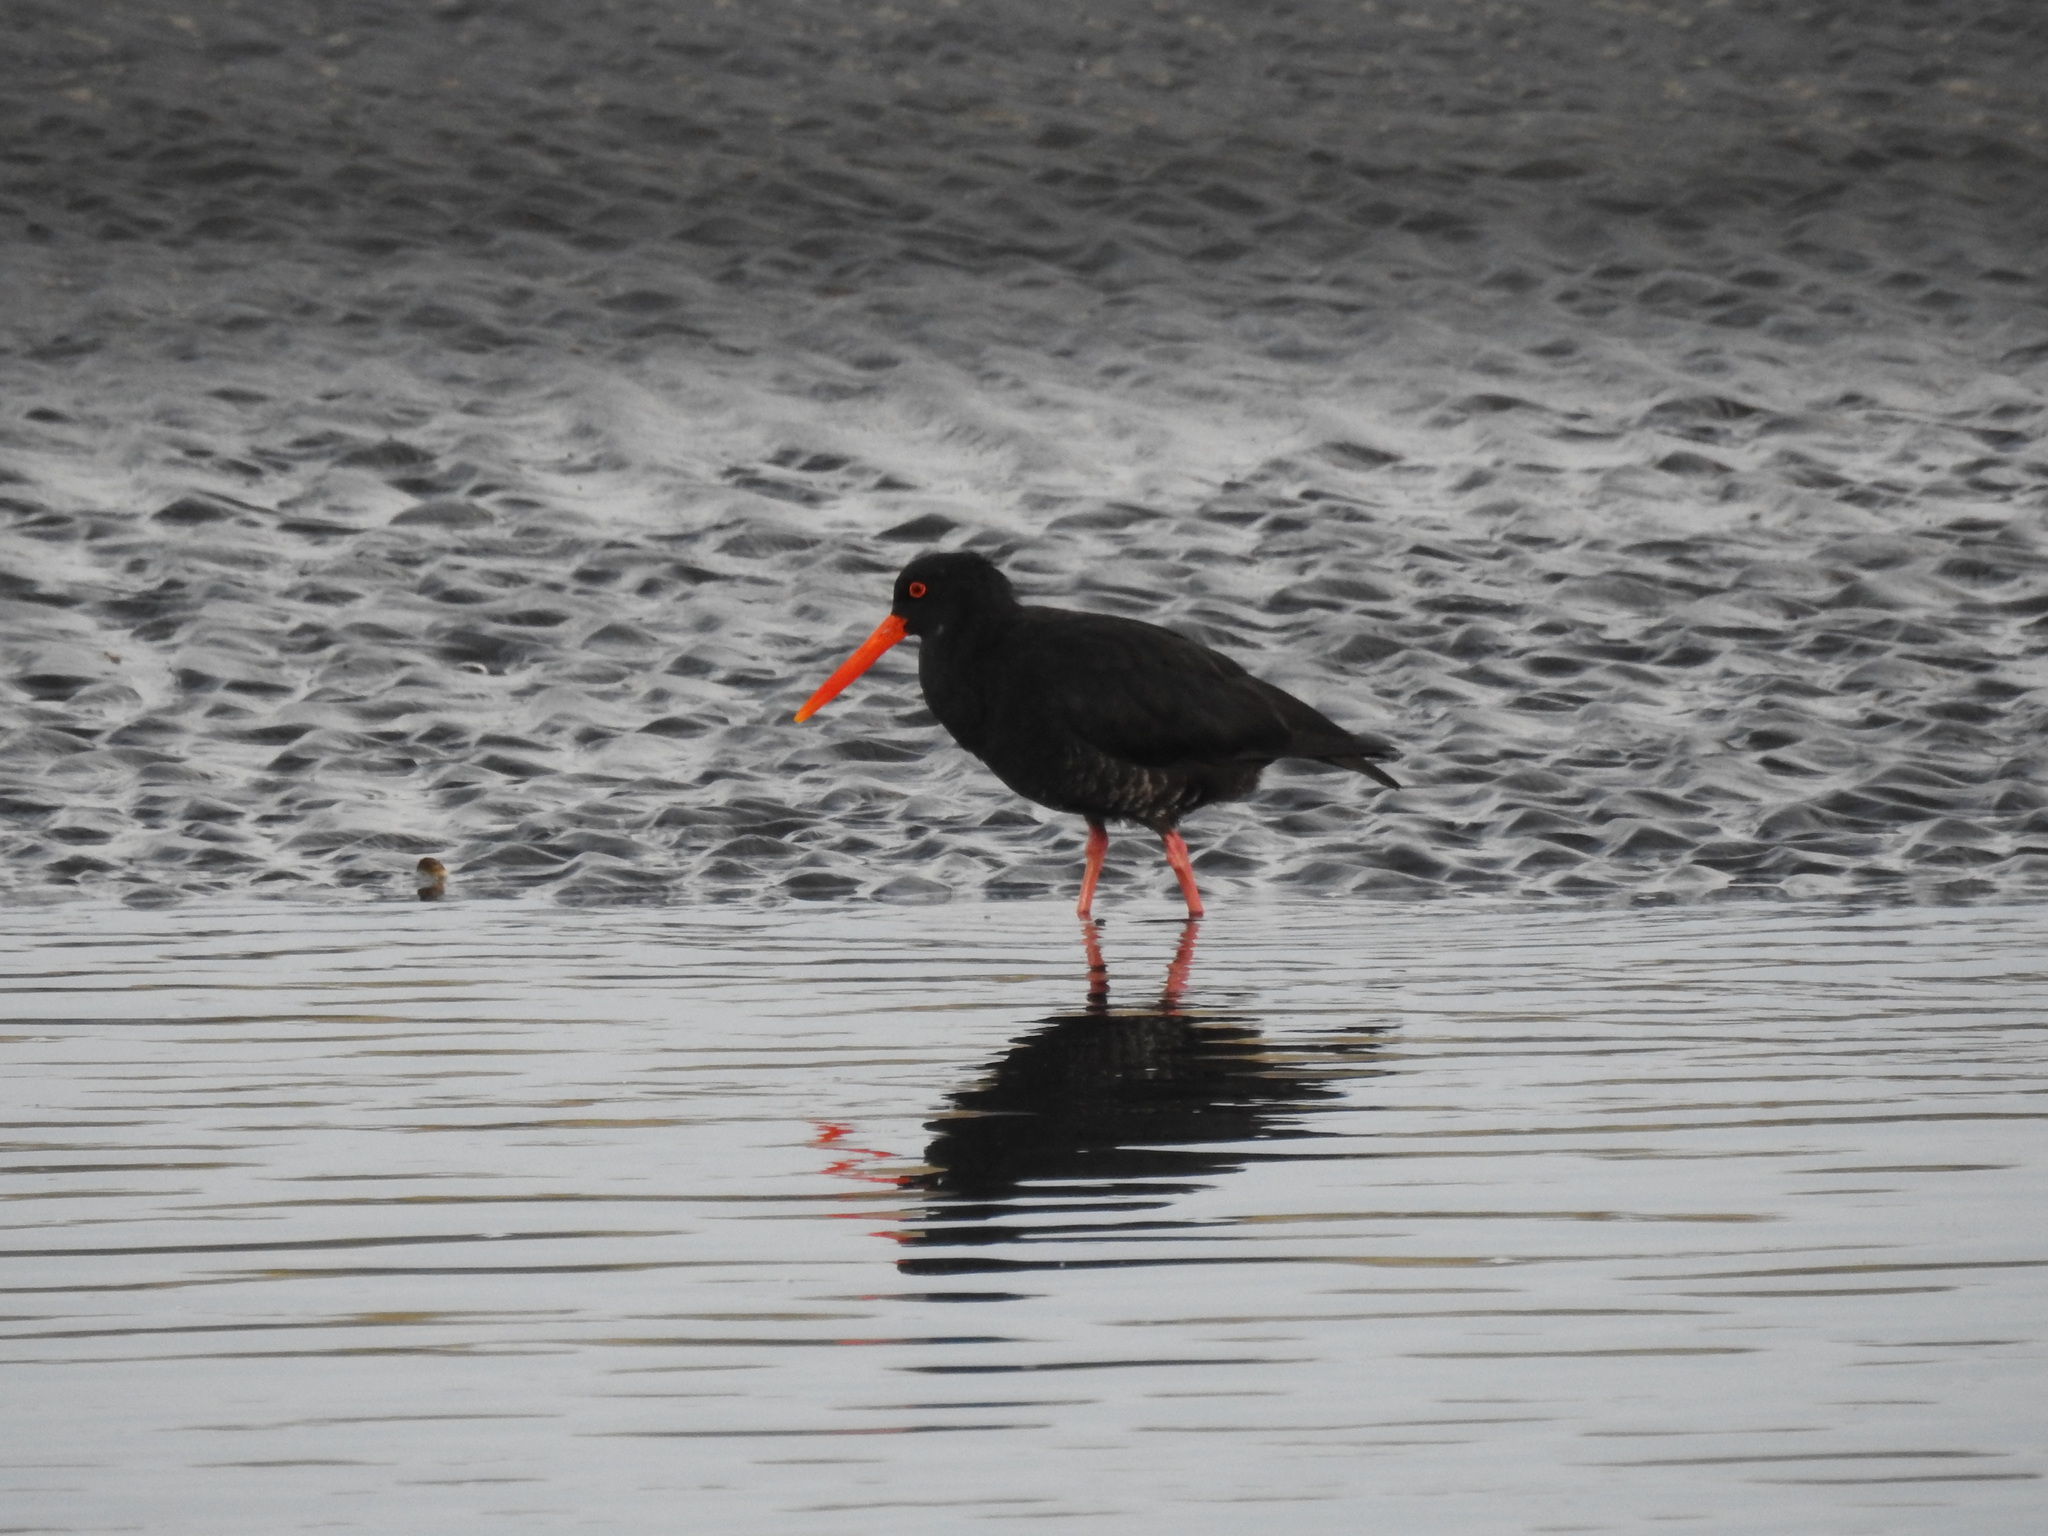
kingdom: Animalia
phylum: Chordata
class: Aves
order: Charadriiformes
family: Haematopodidae
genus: Haematopus
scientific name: Haematopus unicolor
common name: Variable oystercatcher
